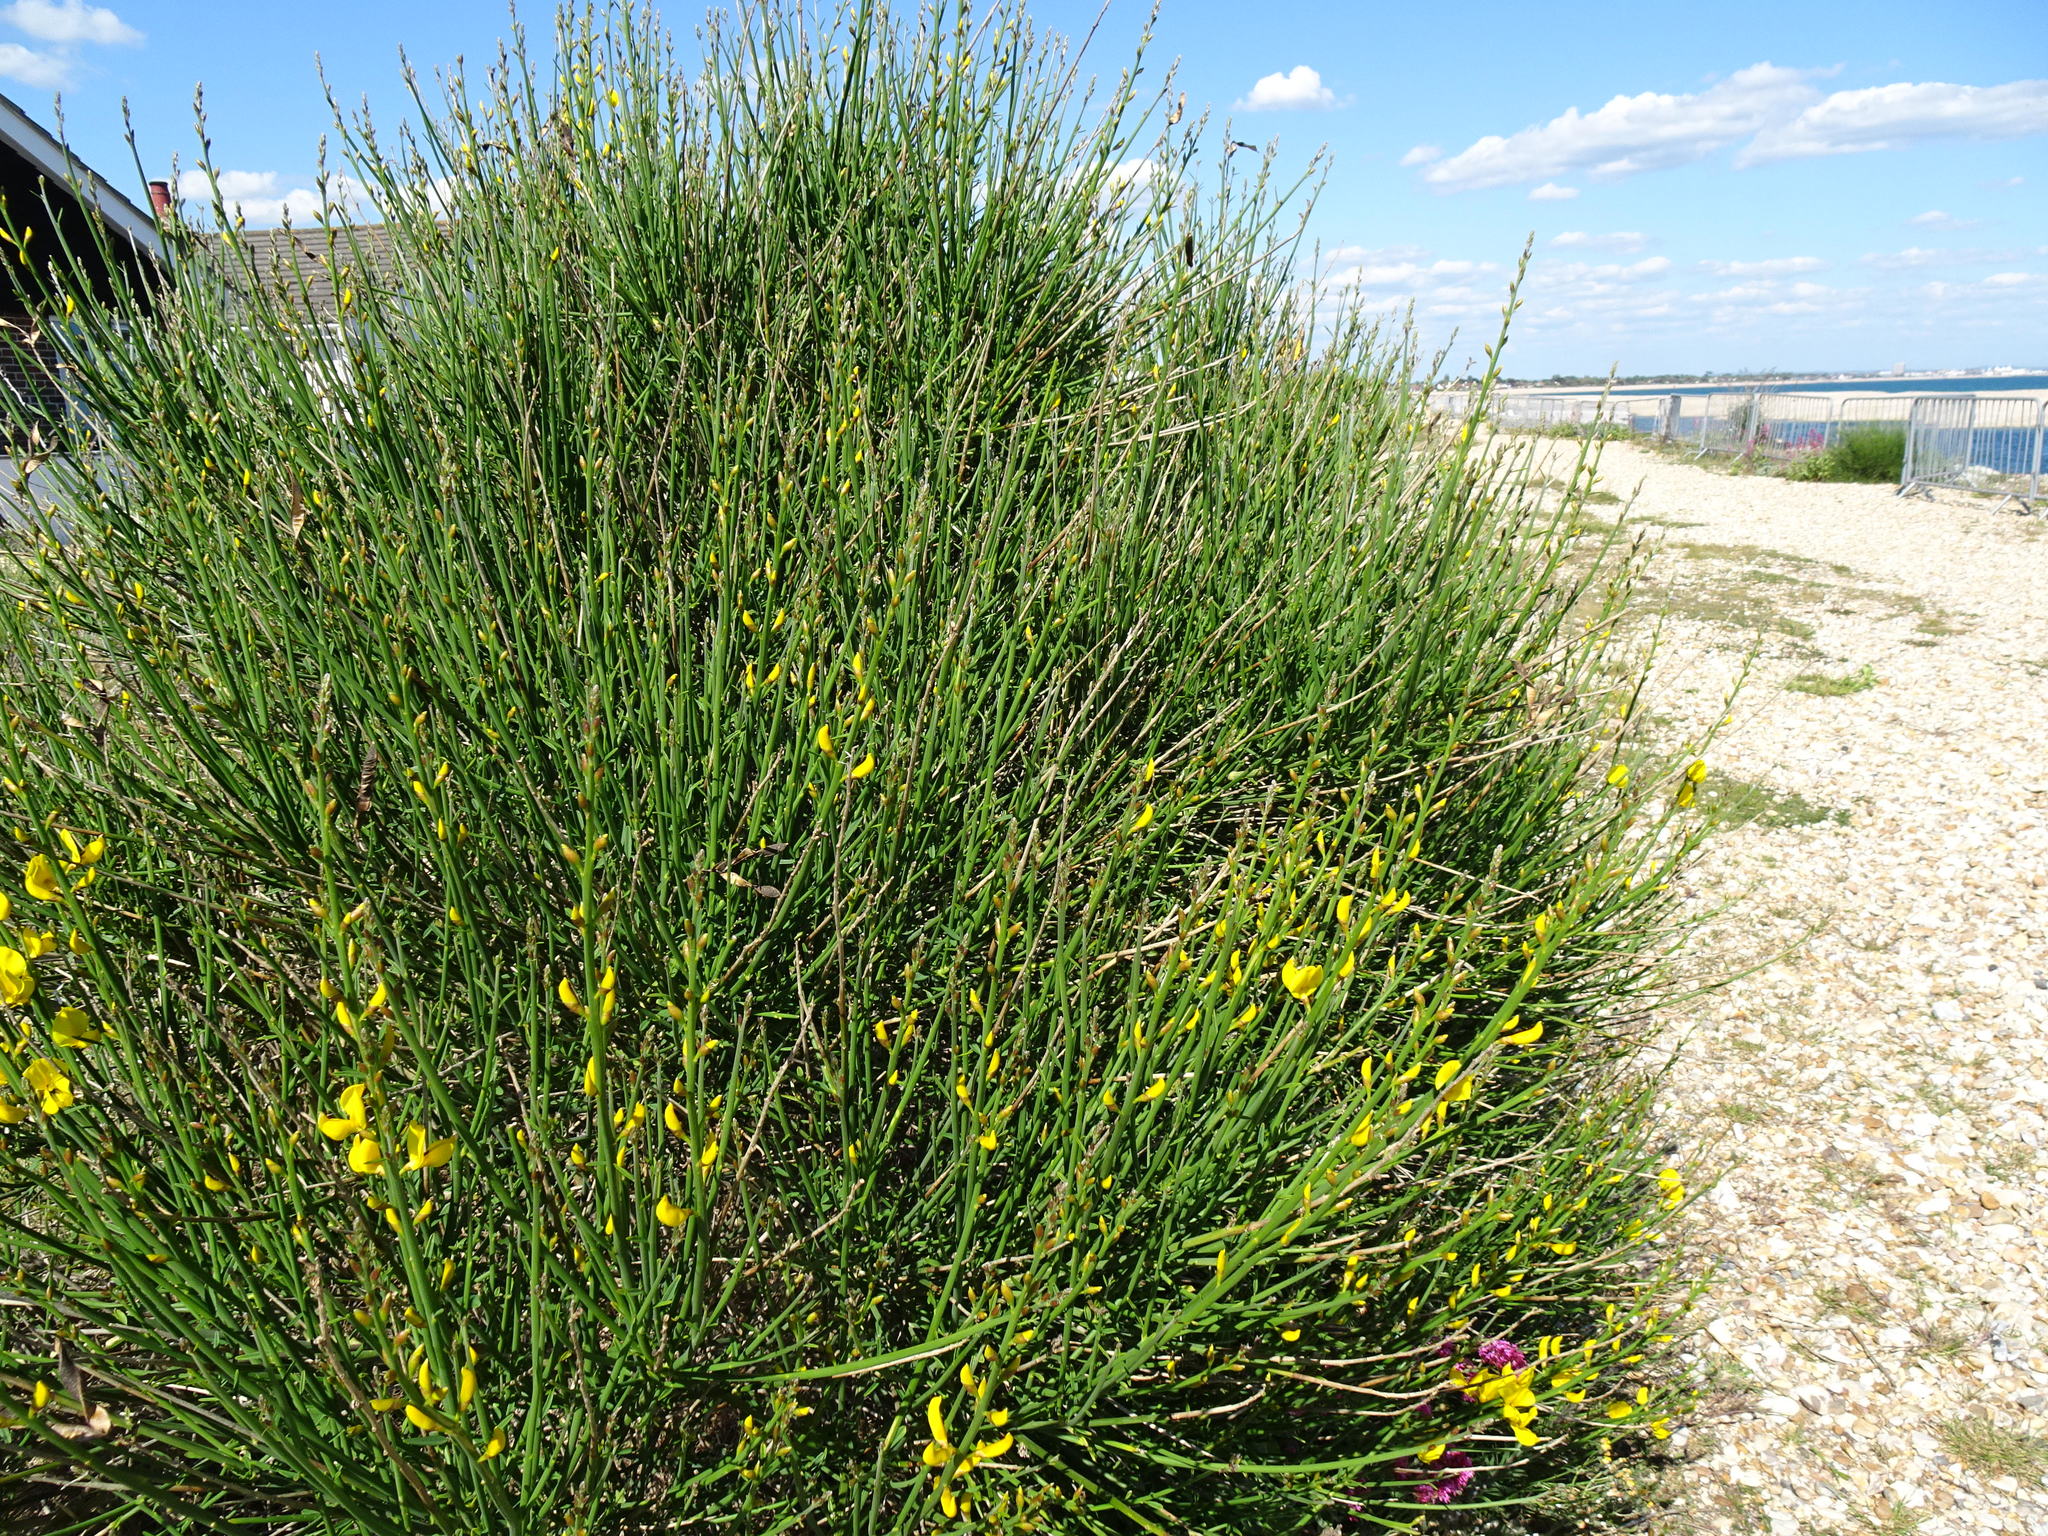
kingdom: Plantae
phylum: Tracheophyta
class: Magnoliopsida
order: Fabales
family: Fabaceae
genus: Spartium
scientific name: Spartium junceum
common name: Spanish broom
